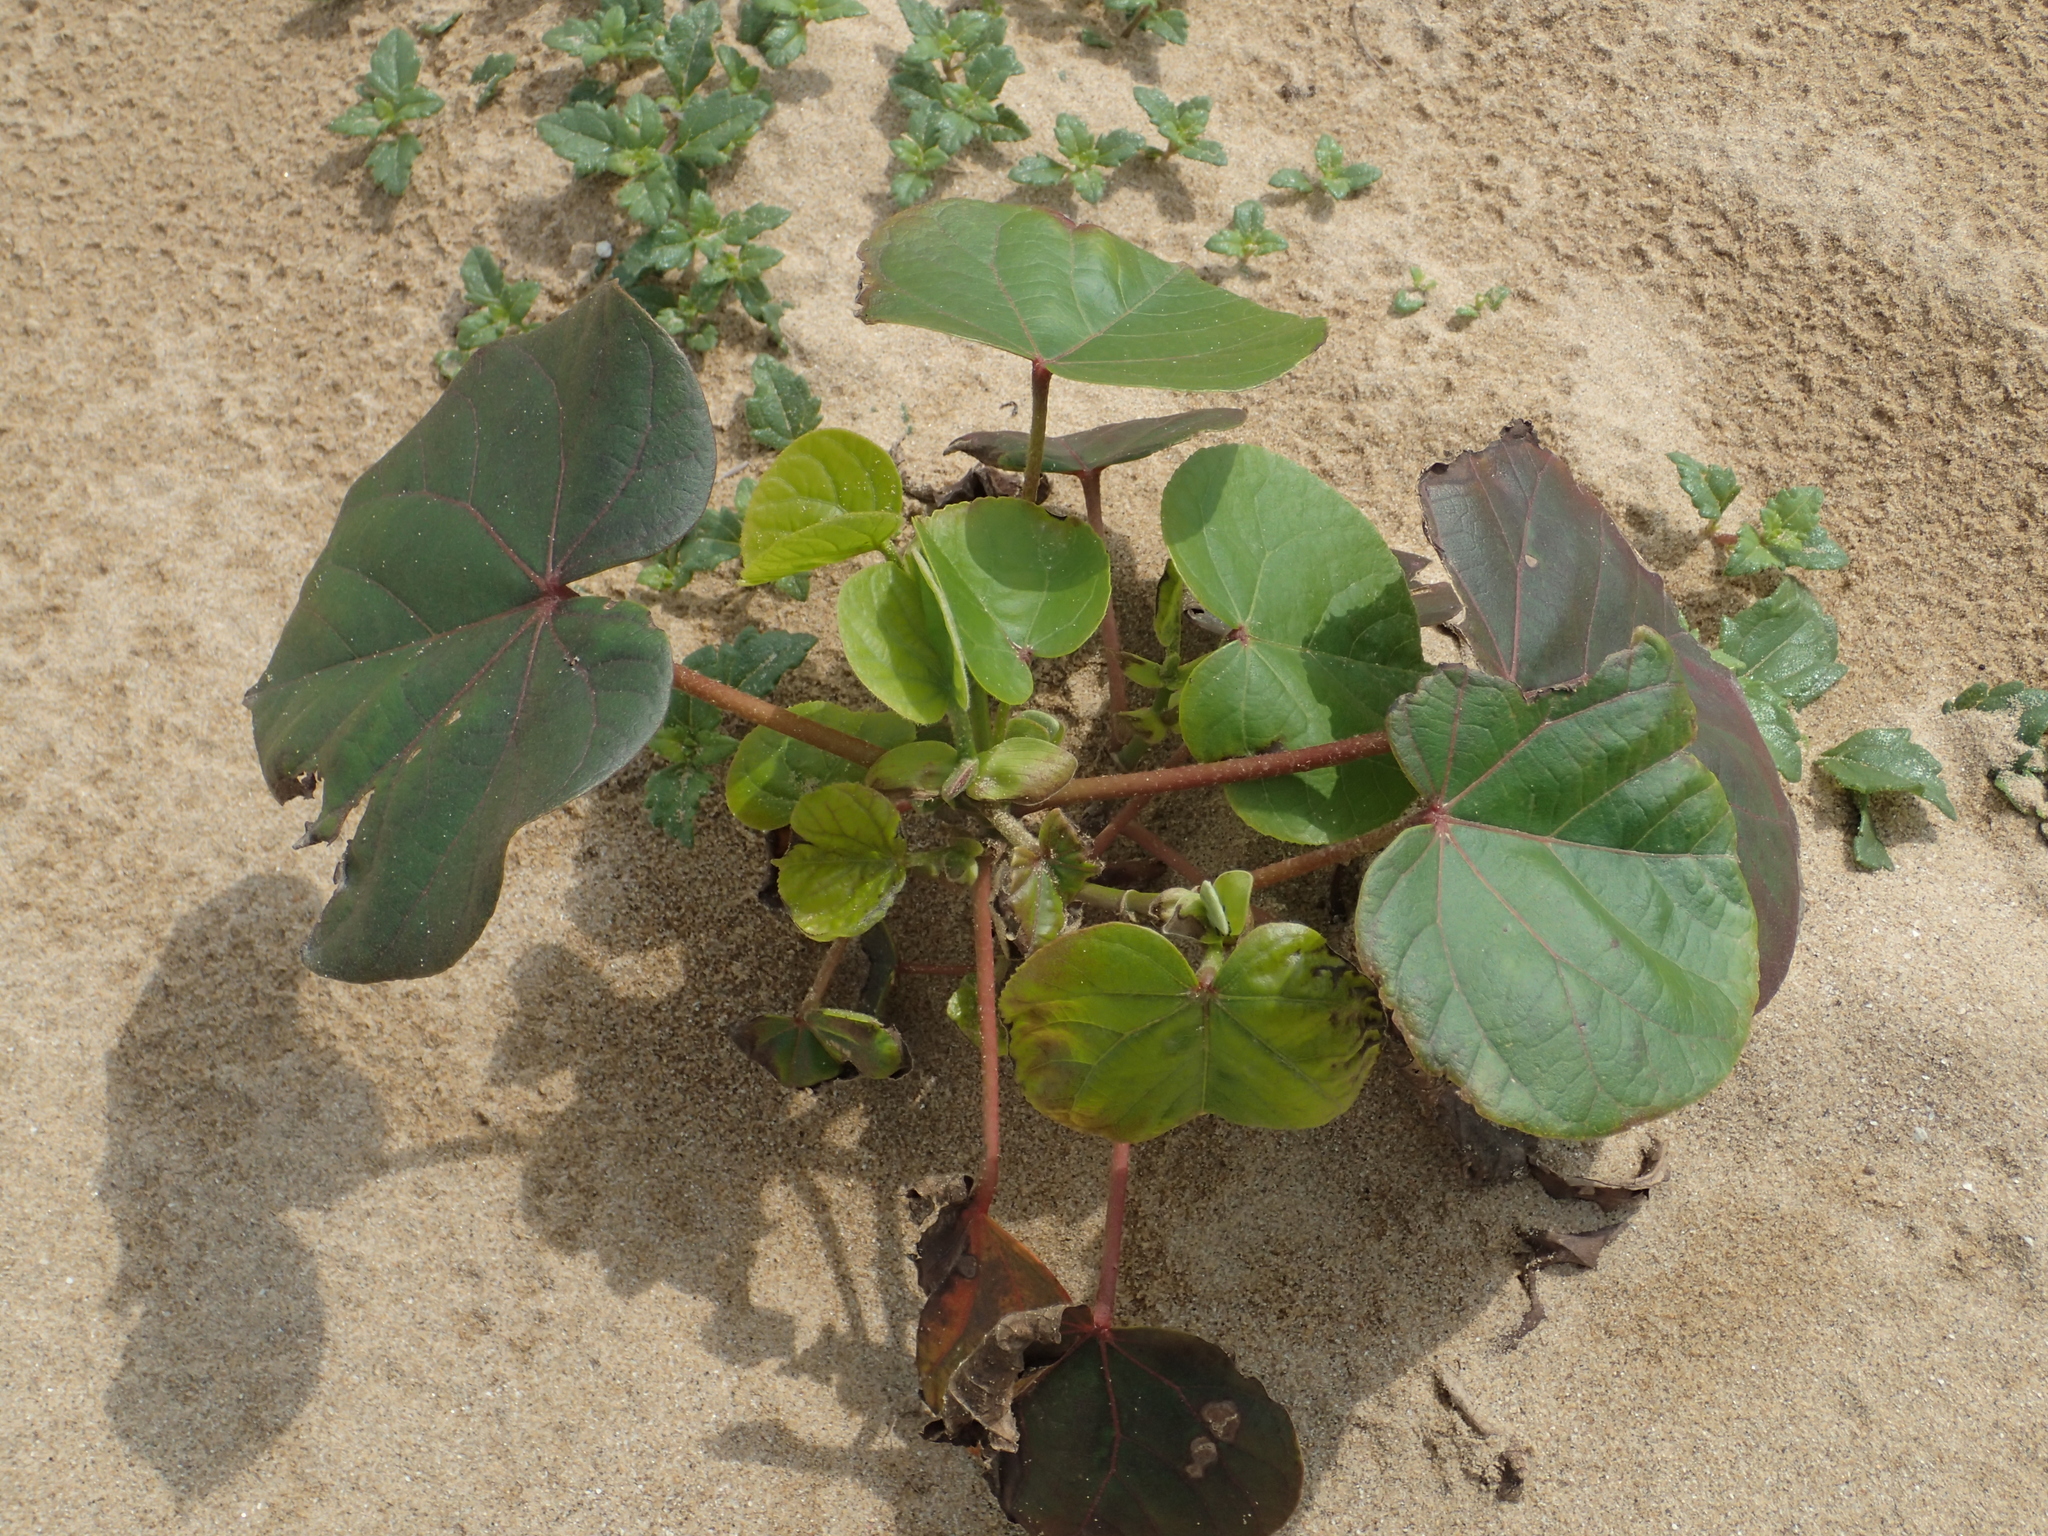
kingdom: Plantae
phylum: Tracheophyta
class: Magnoliopsida
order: Malvales
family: Malvaceae
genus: Talipariti
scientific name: Talipariti tiliaceum
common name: Sea hibiscus
